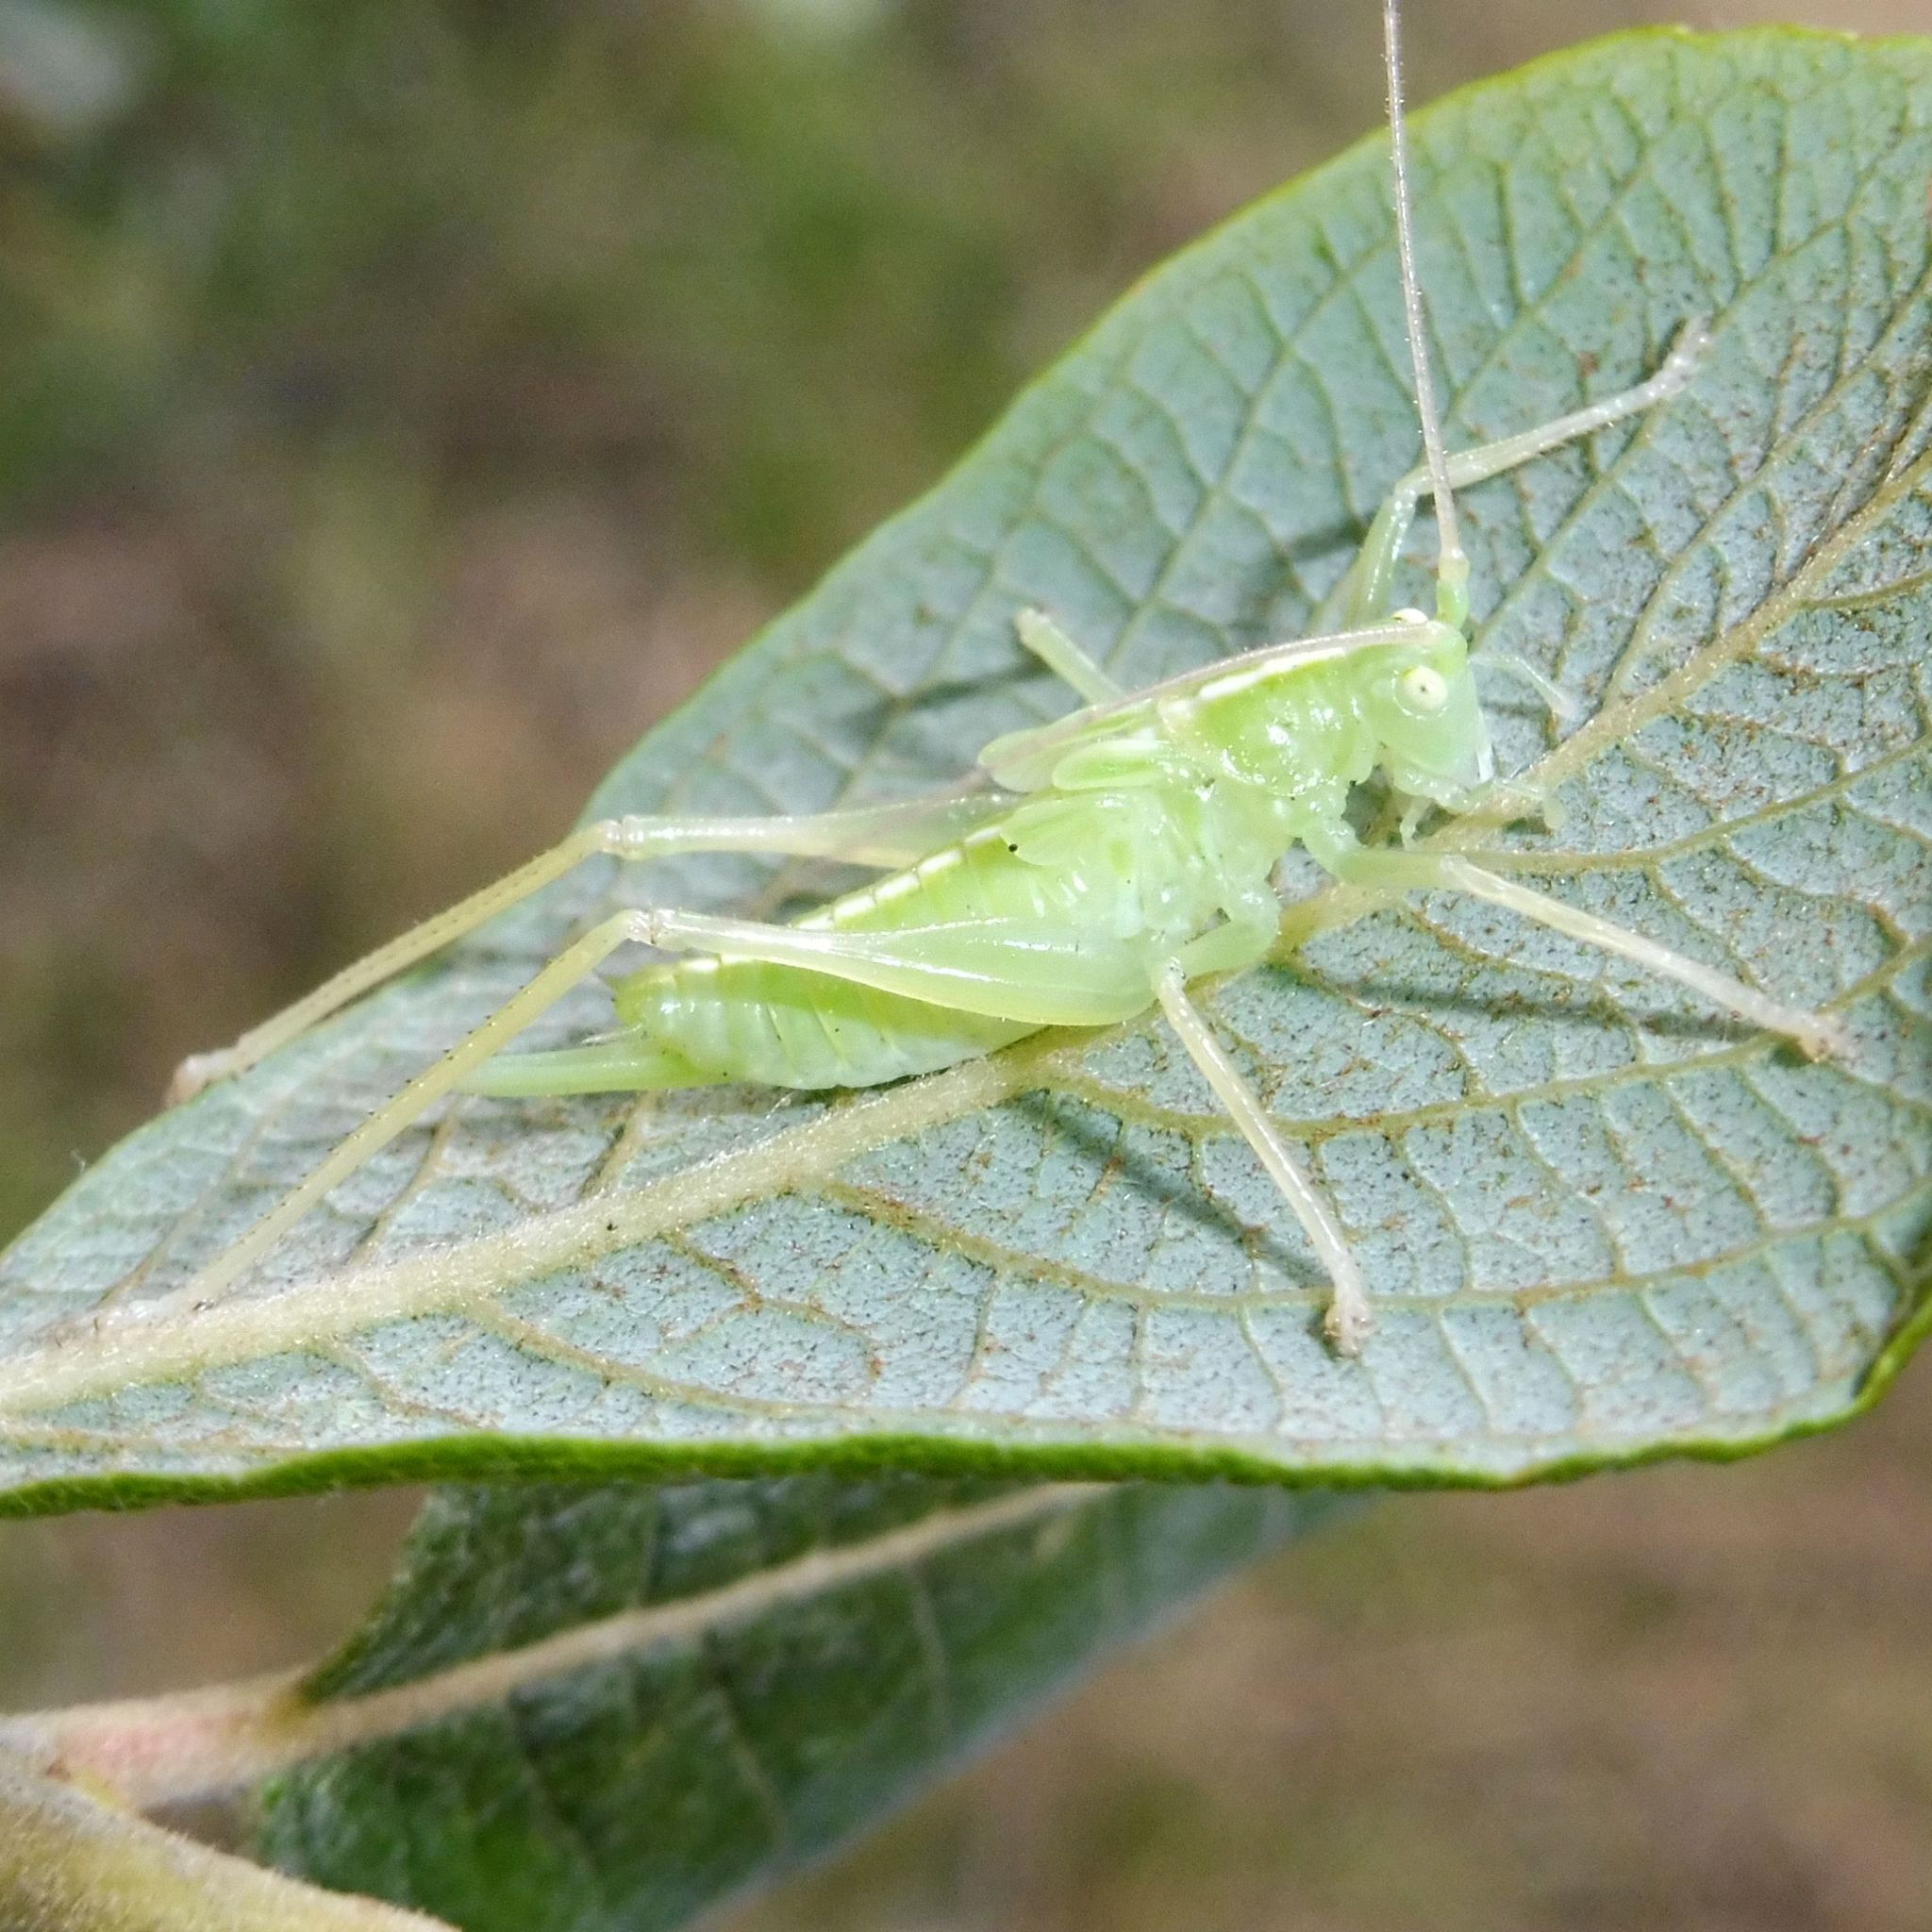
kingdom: Animalia
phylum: Arthropoda
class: Insecta
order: Orthoptera
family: Tettigoniidae
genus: Meconema
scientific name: Meconema thalassinum
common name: Oak bush-cricket
